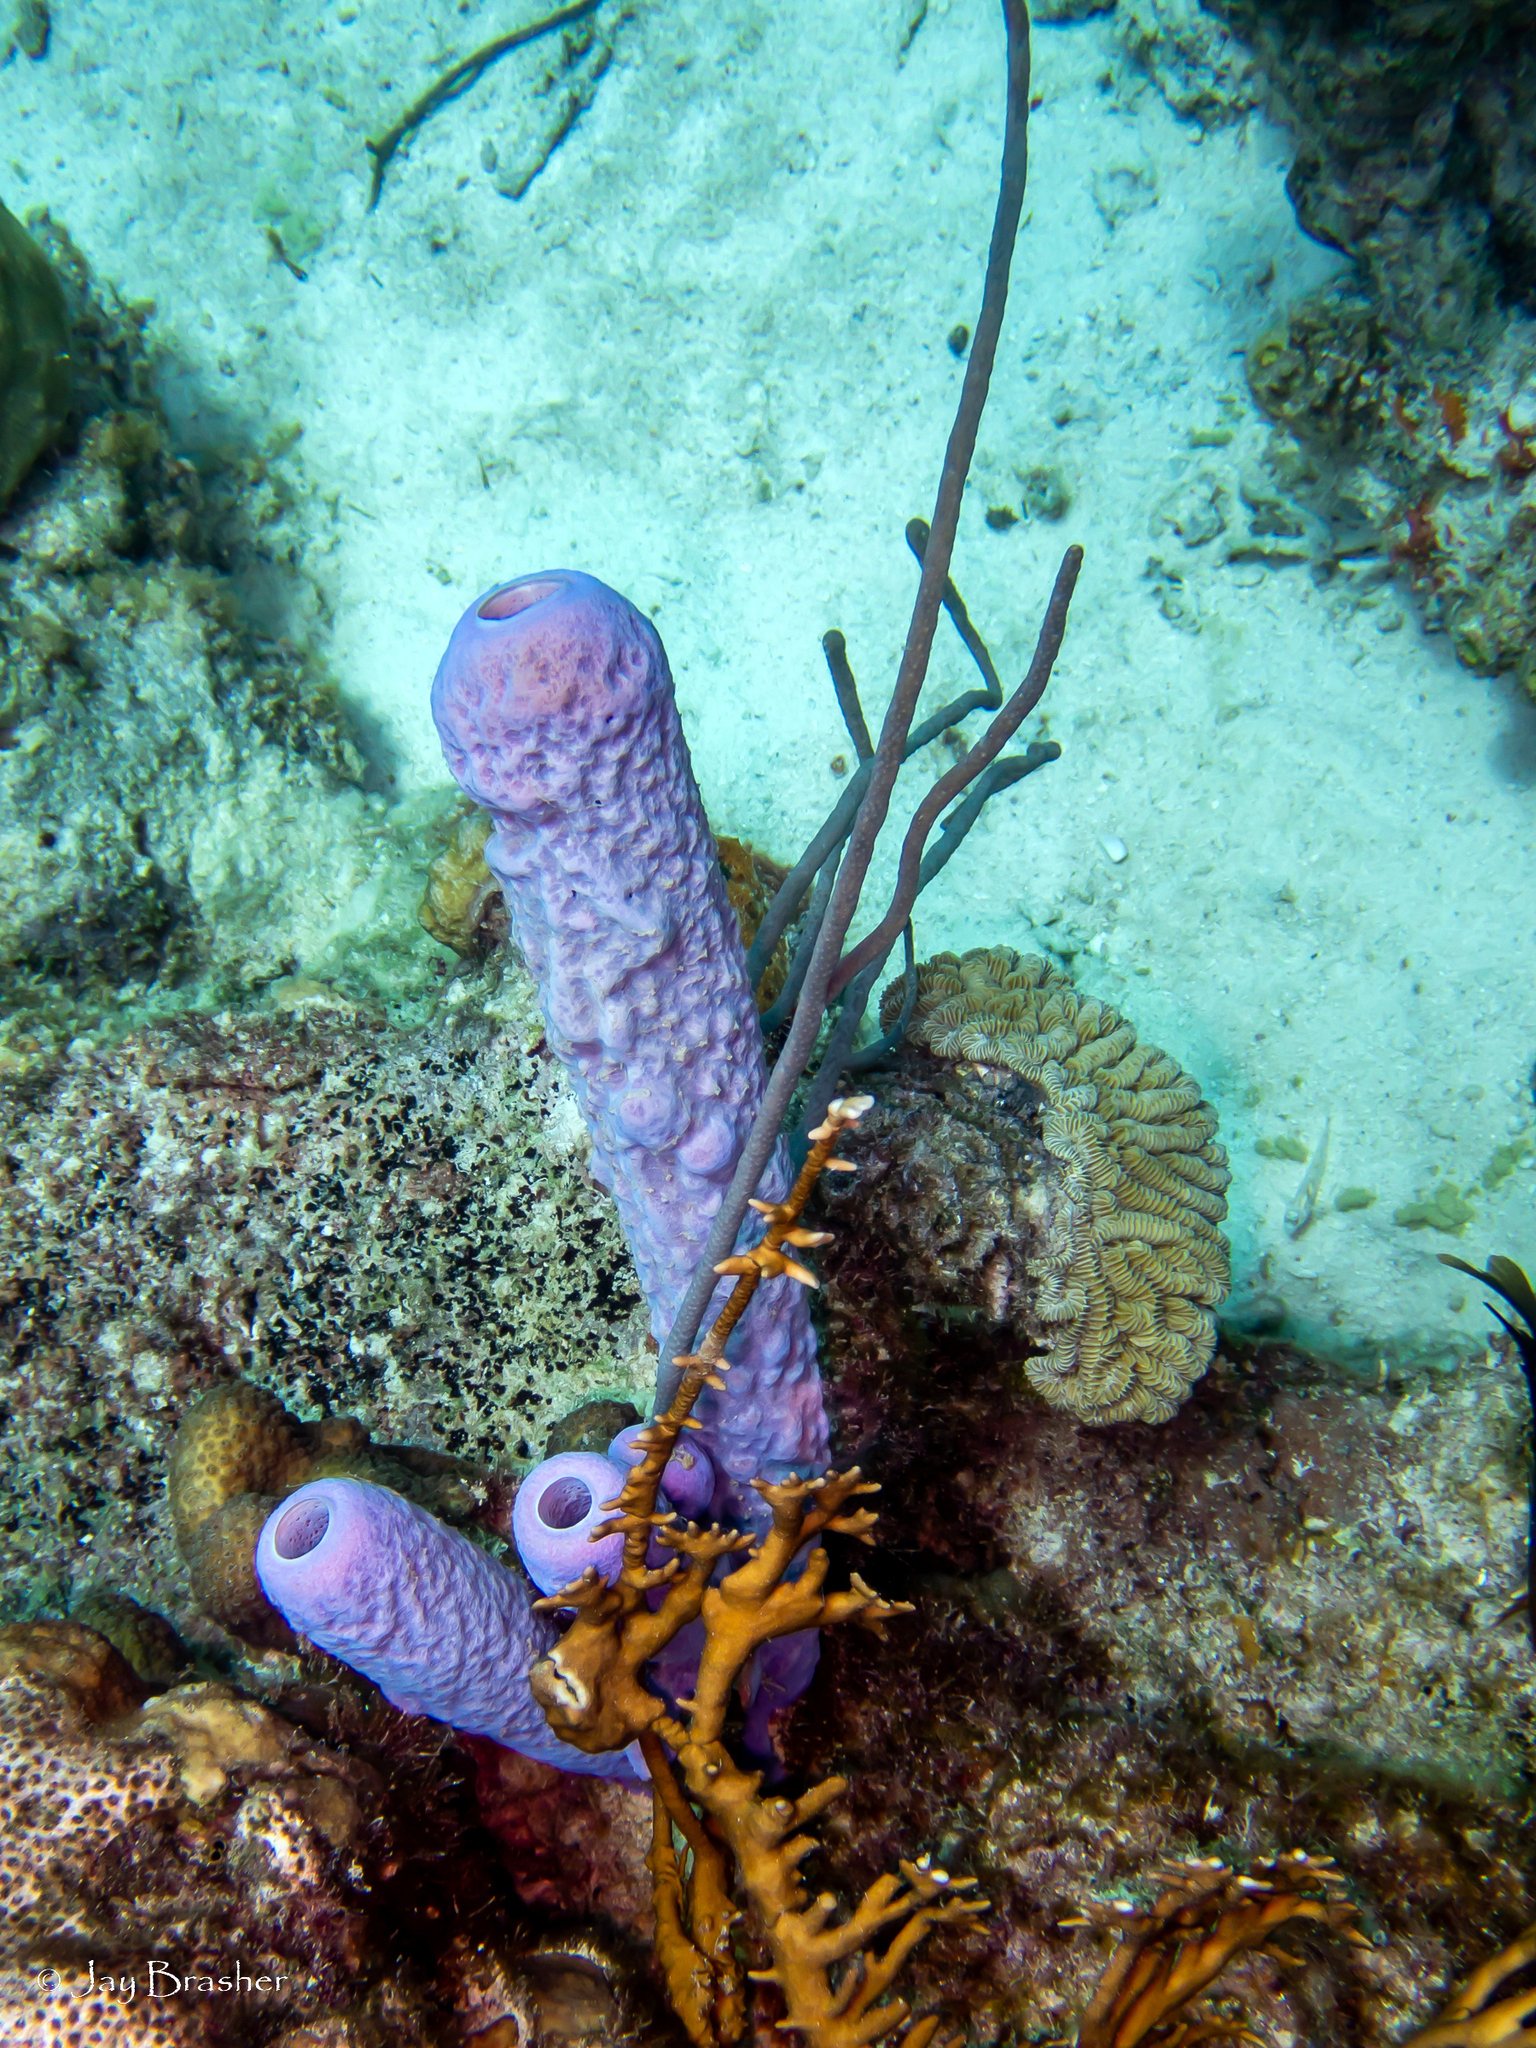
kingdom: Animalia
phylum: Porifera
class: Demospongiae
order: Verongiida
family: Aplysinidae
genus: Aplysina
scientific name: Aplysina archeri
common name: Stove-pipe sponge
